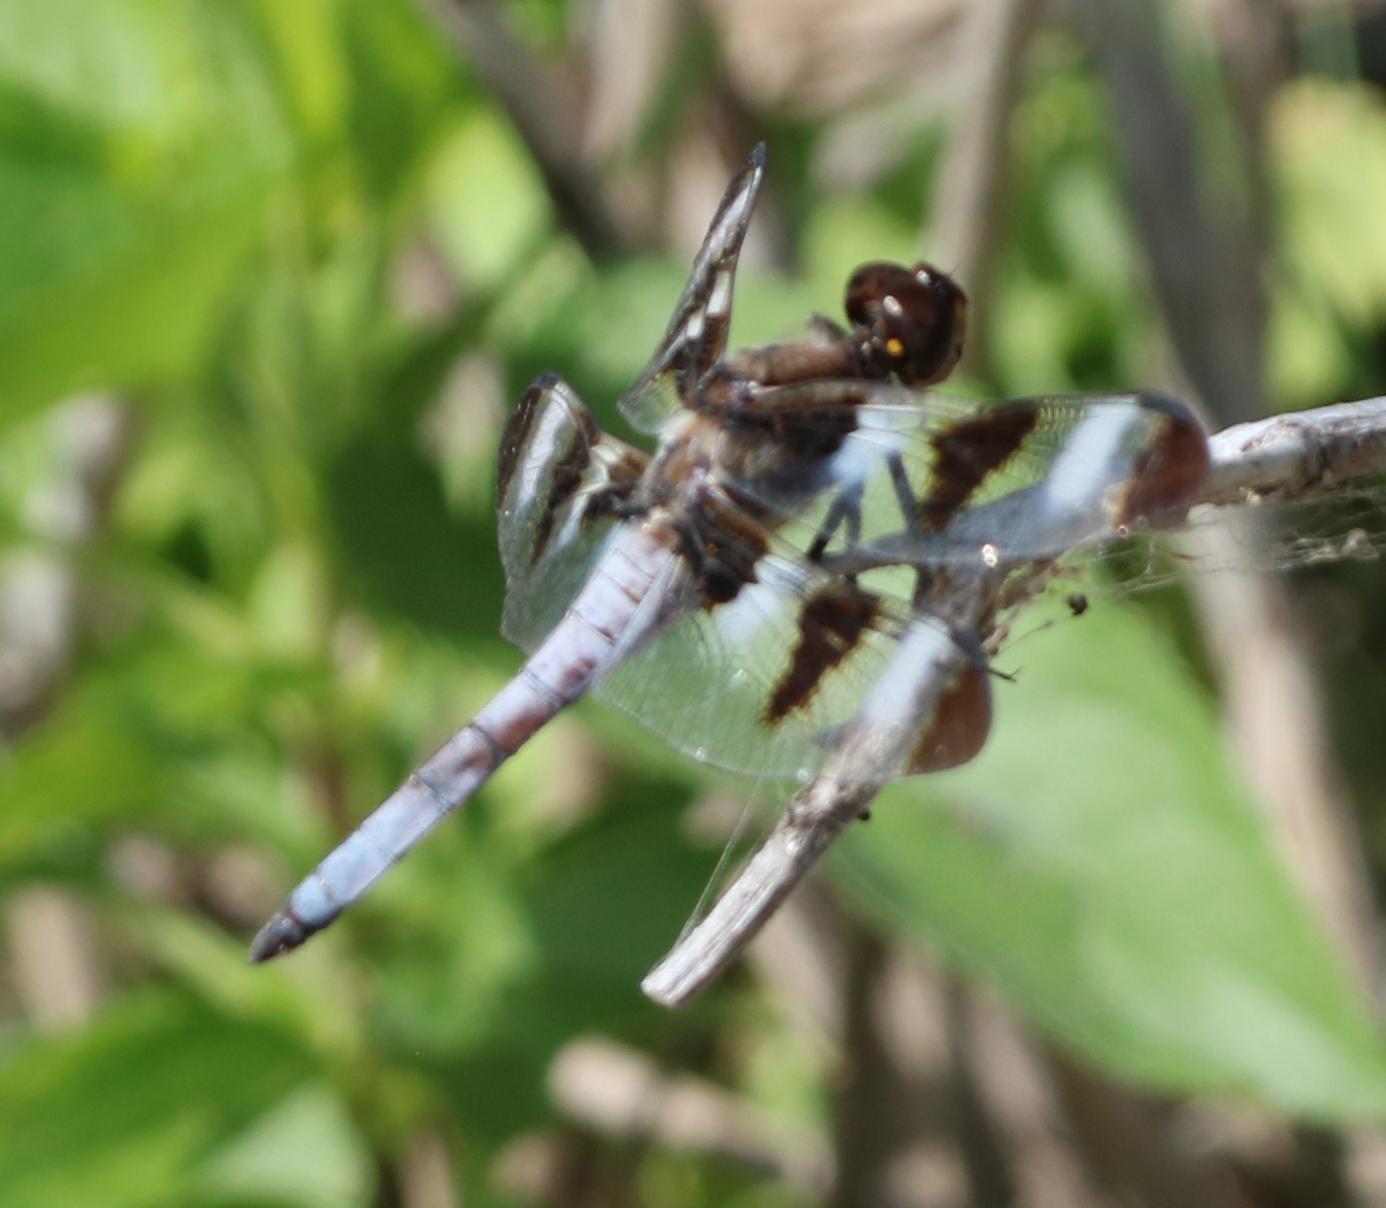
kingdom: Animalia
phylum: Arthropoda
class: Insecta
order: Odonata
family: Libellulidae
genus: Libellula
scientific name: Libellula pulchella
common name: Twelve-spotted skimmer
